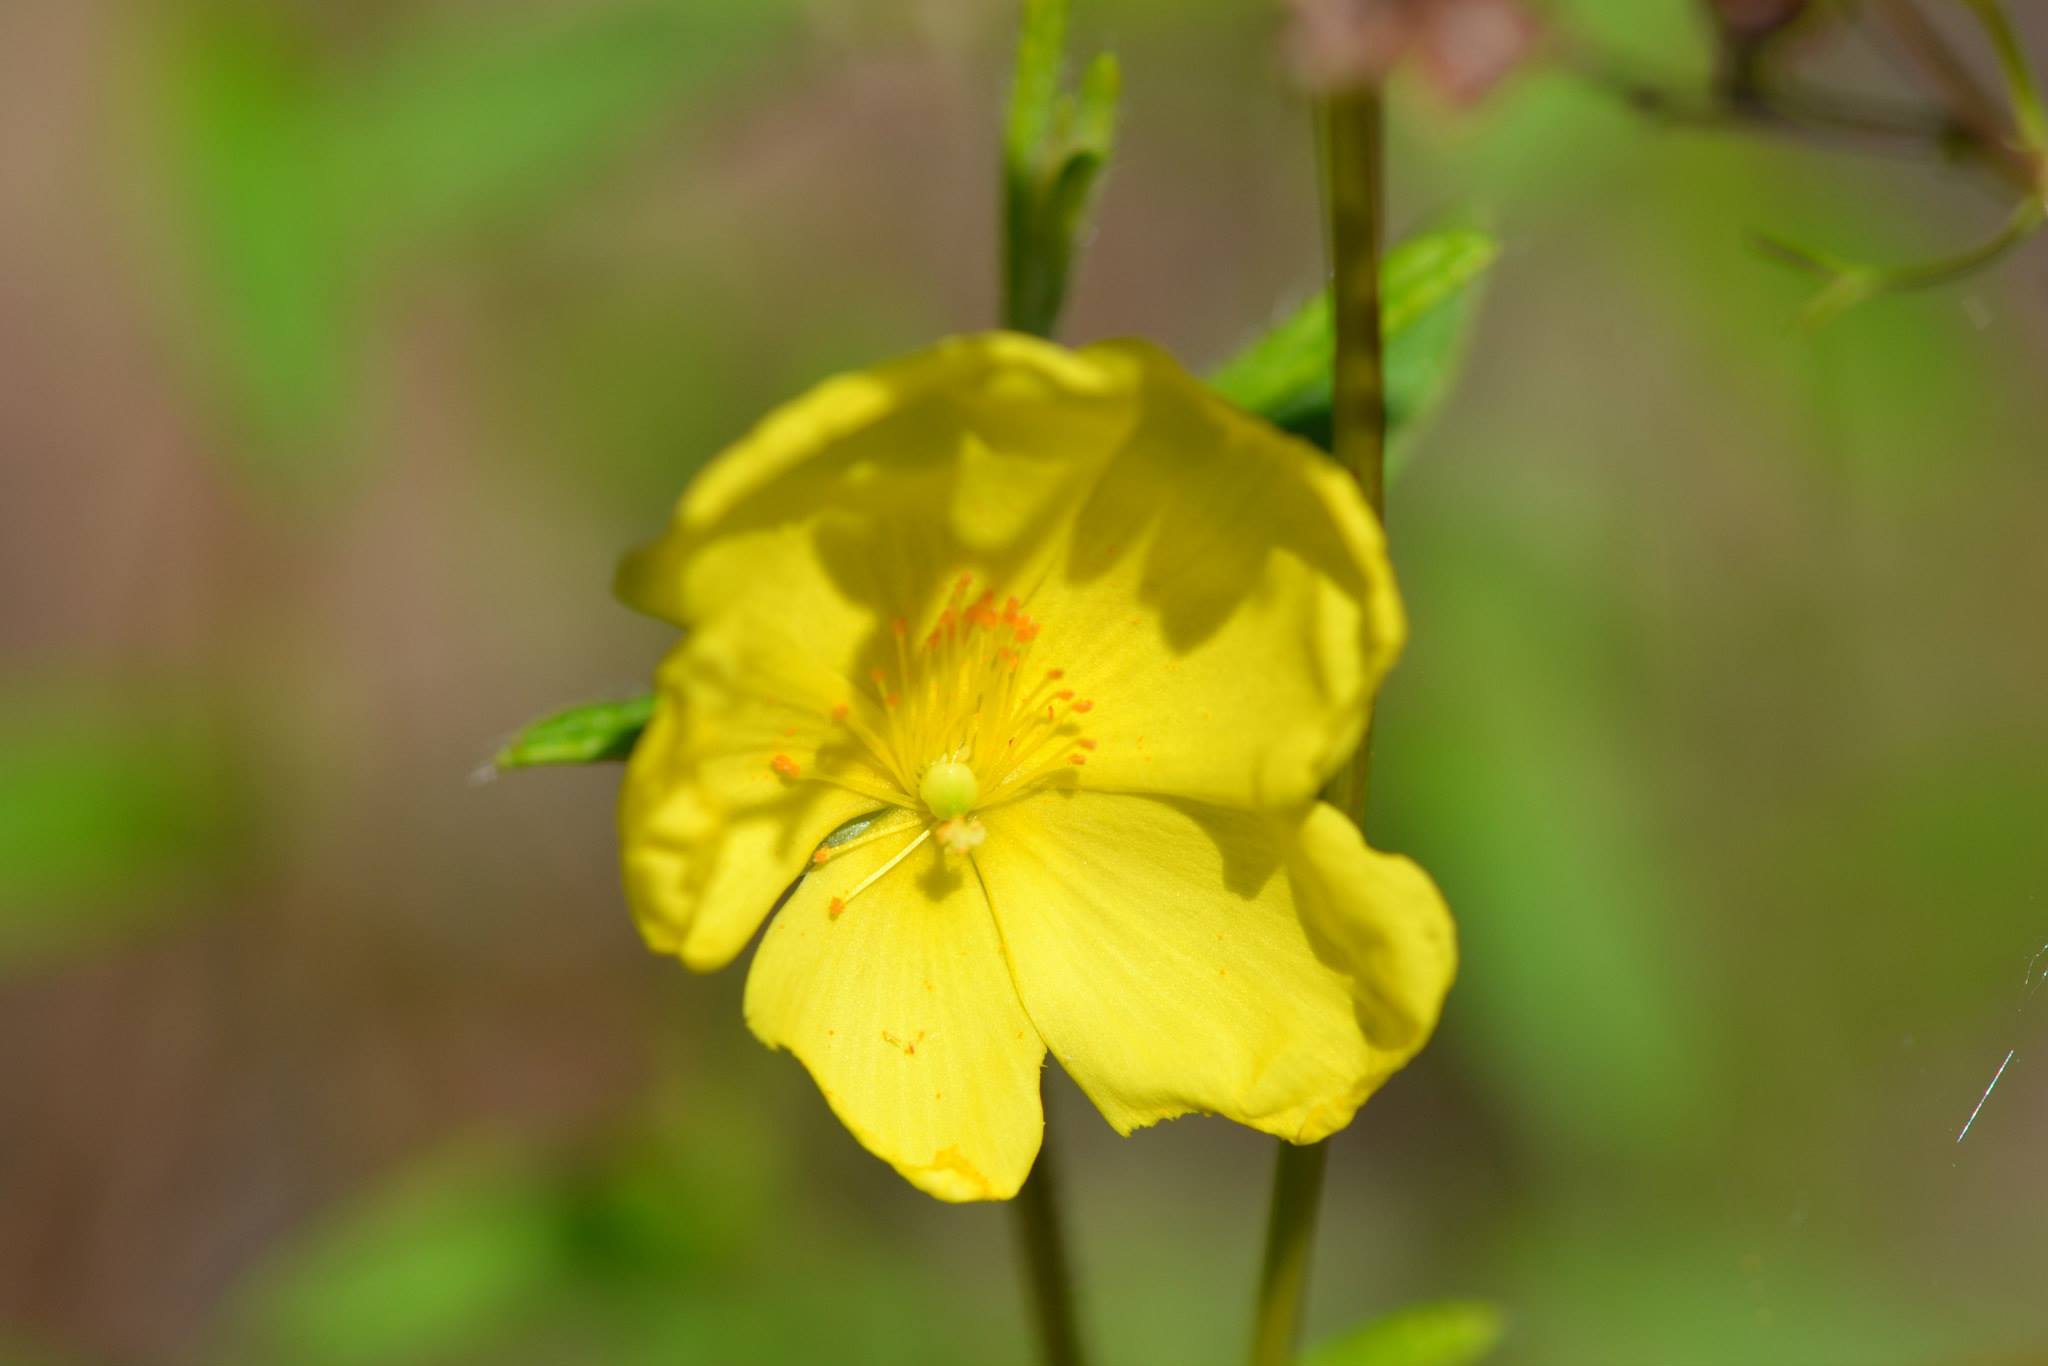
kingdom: Plantae
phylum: Tracheophyta
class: Magnoliopsida
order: Malvales
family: Cistaceae
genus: Crocanthemum
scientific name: Crocanthemum canadense
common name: Canada frostweed
